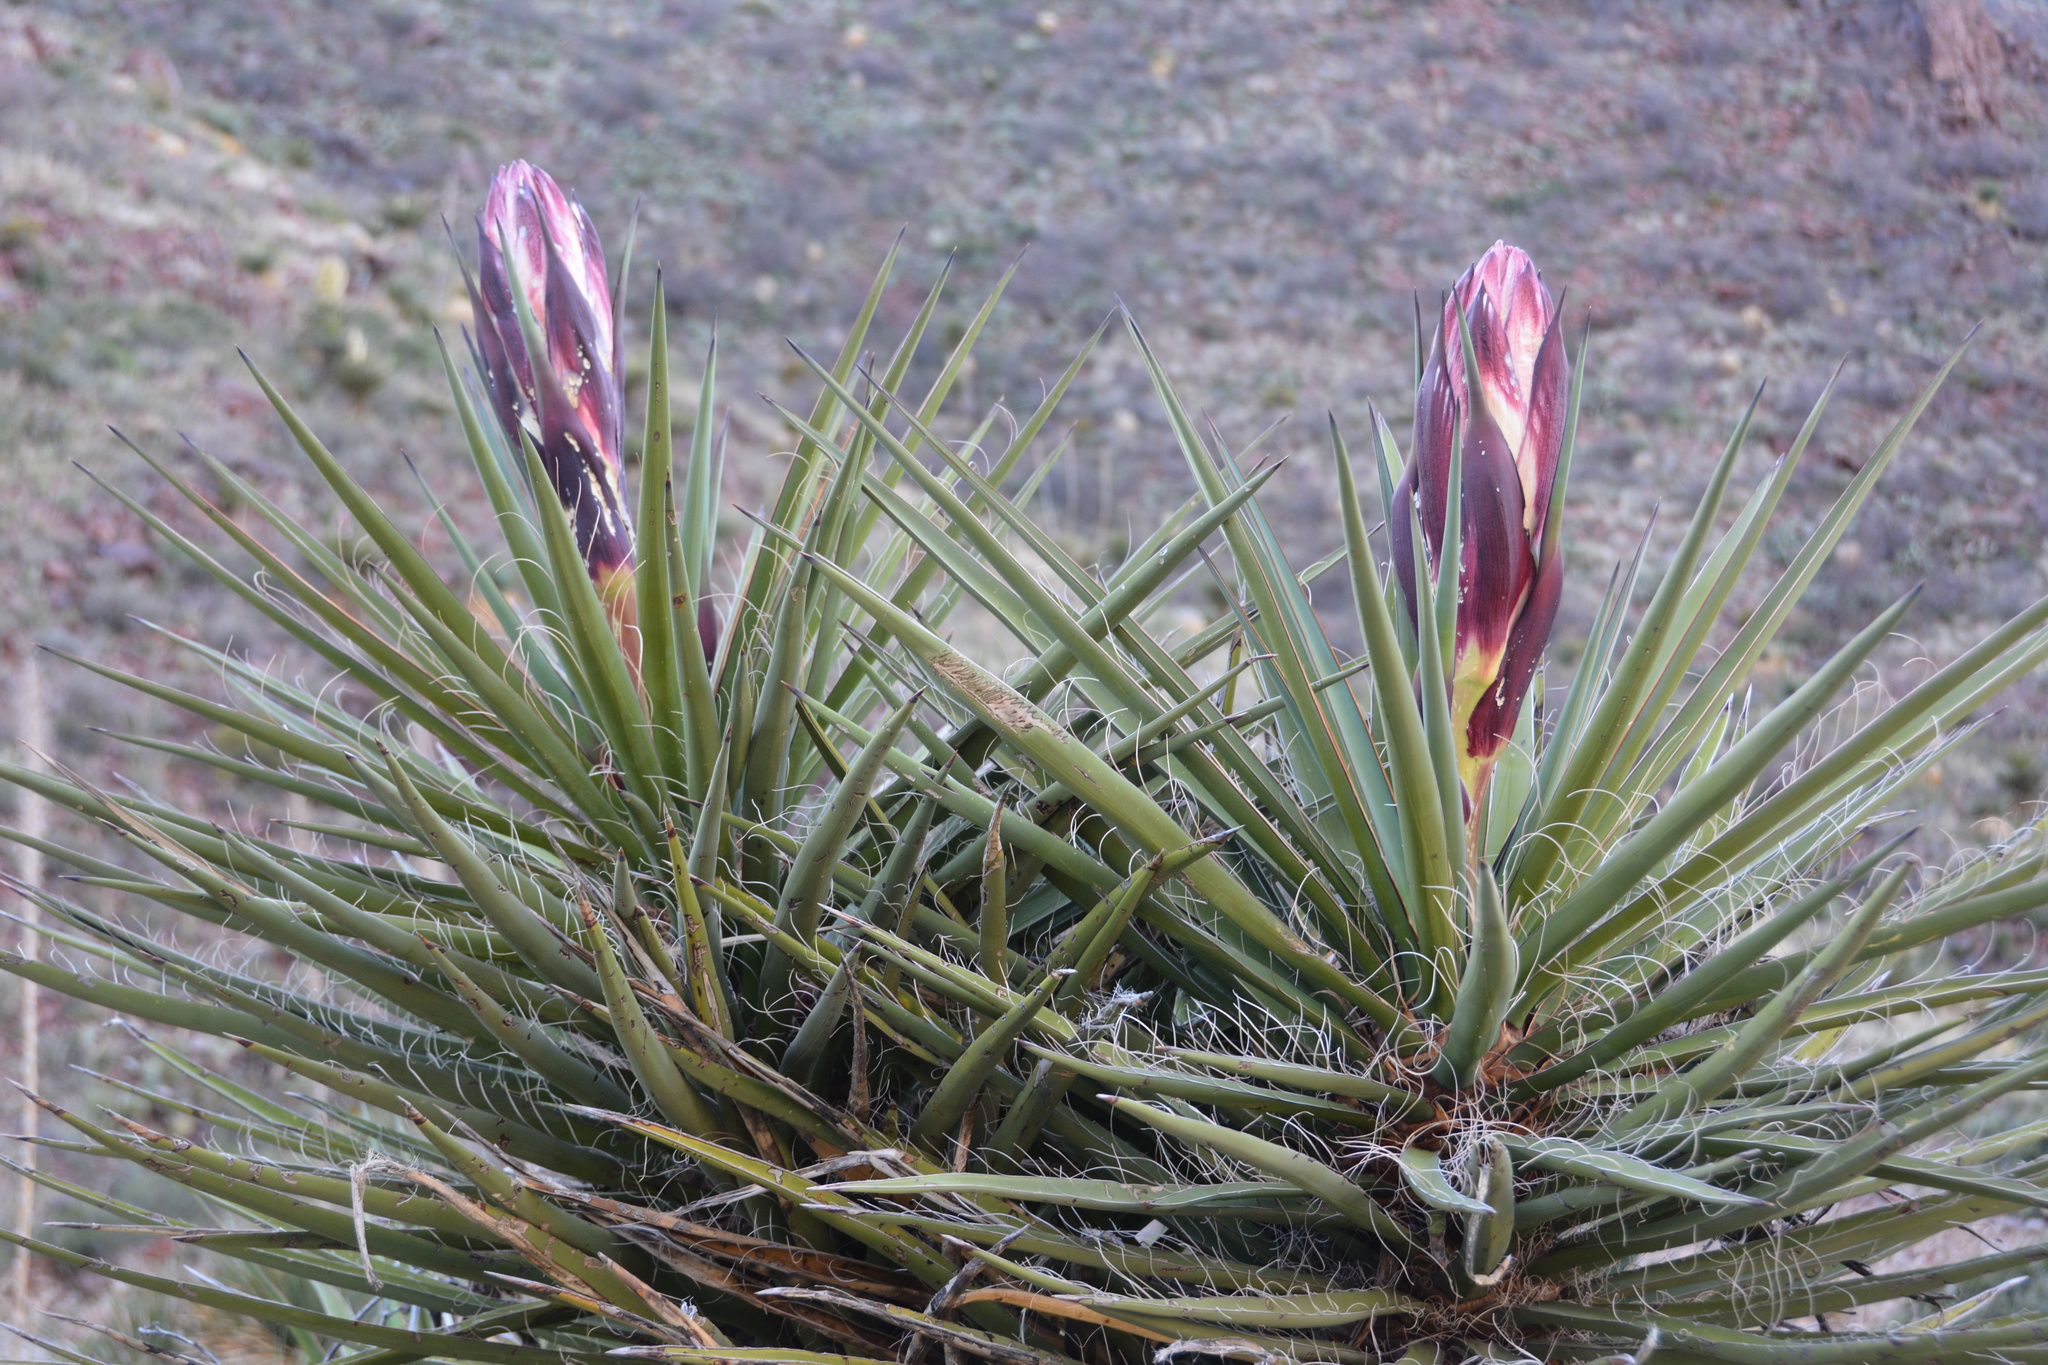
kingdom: Plantae
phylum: Tracheophyta
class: Liliopsida
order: Asparagales
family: Asparagaceae
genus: Yucca
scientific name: Yucca treculiana
